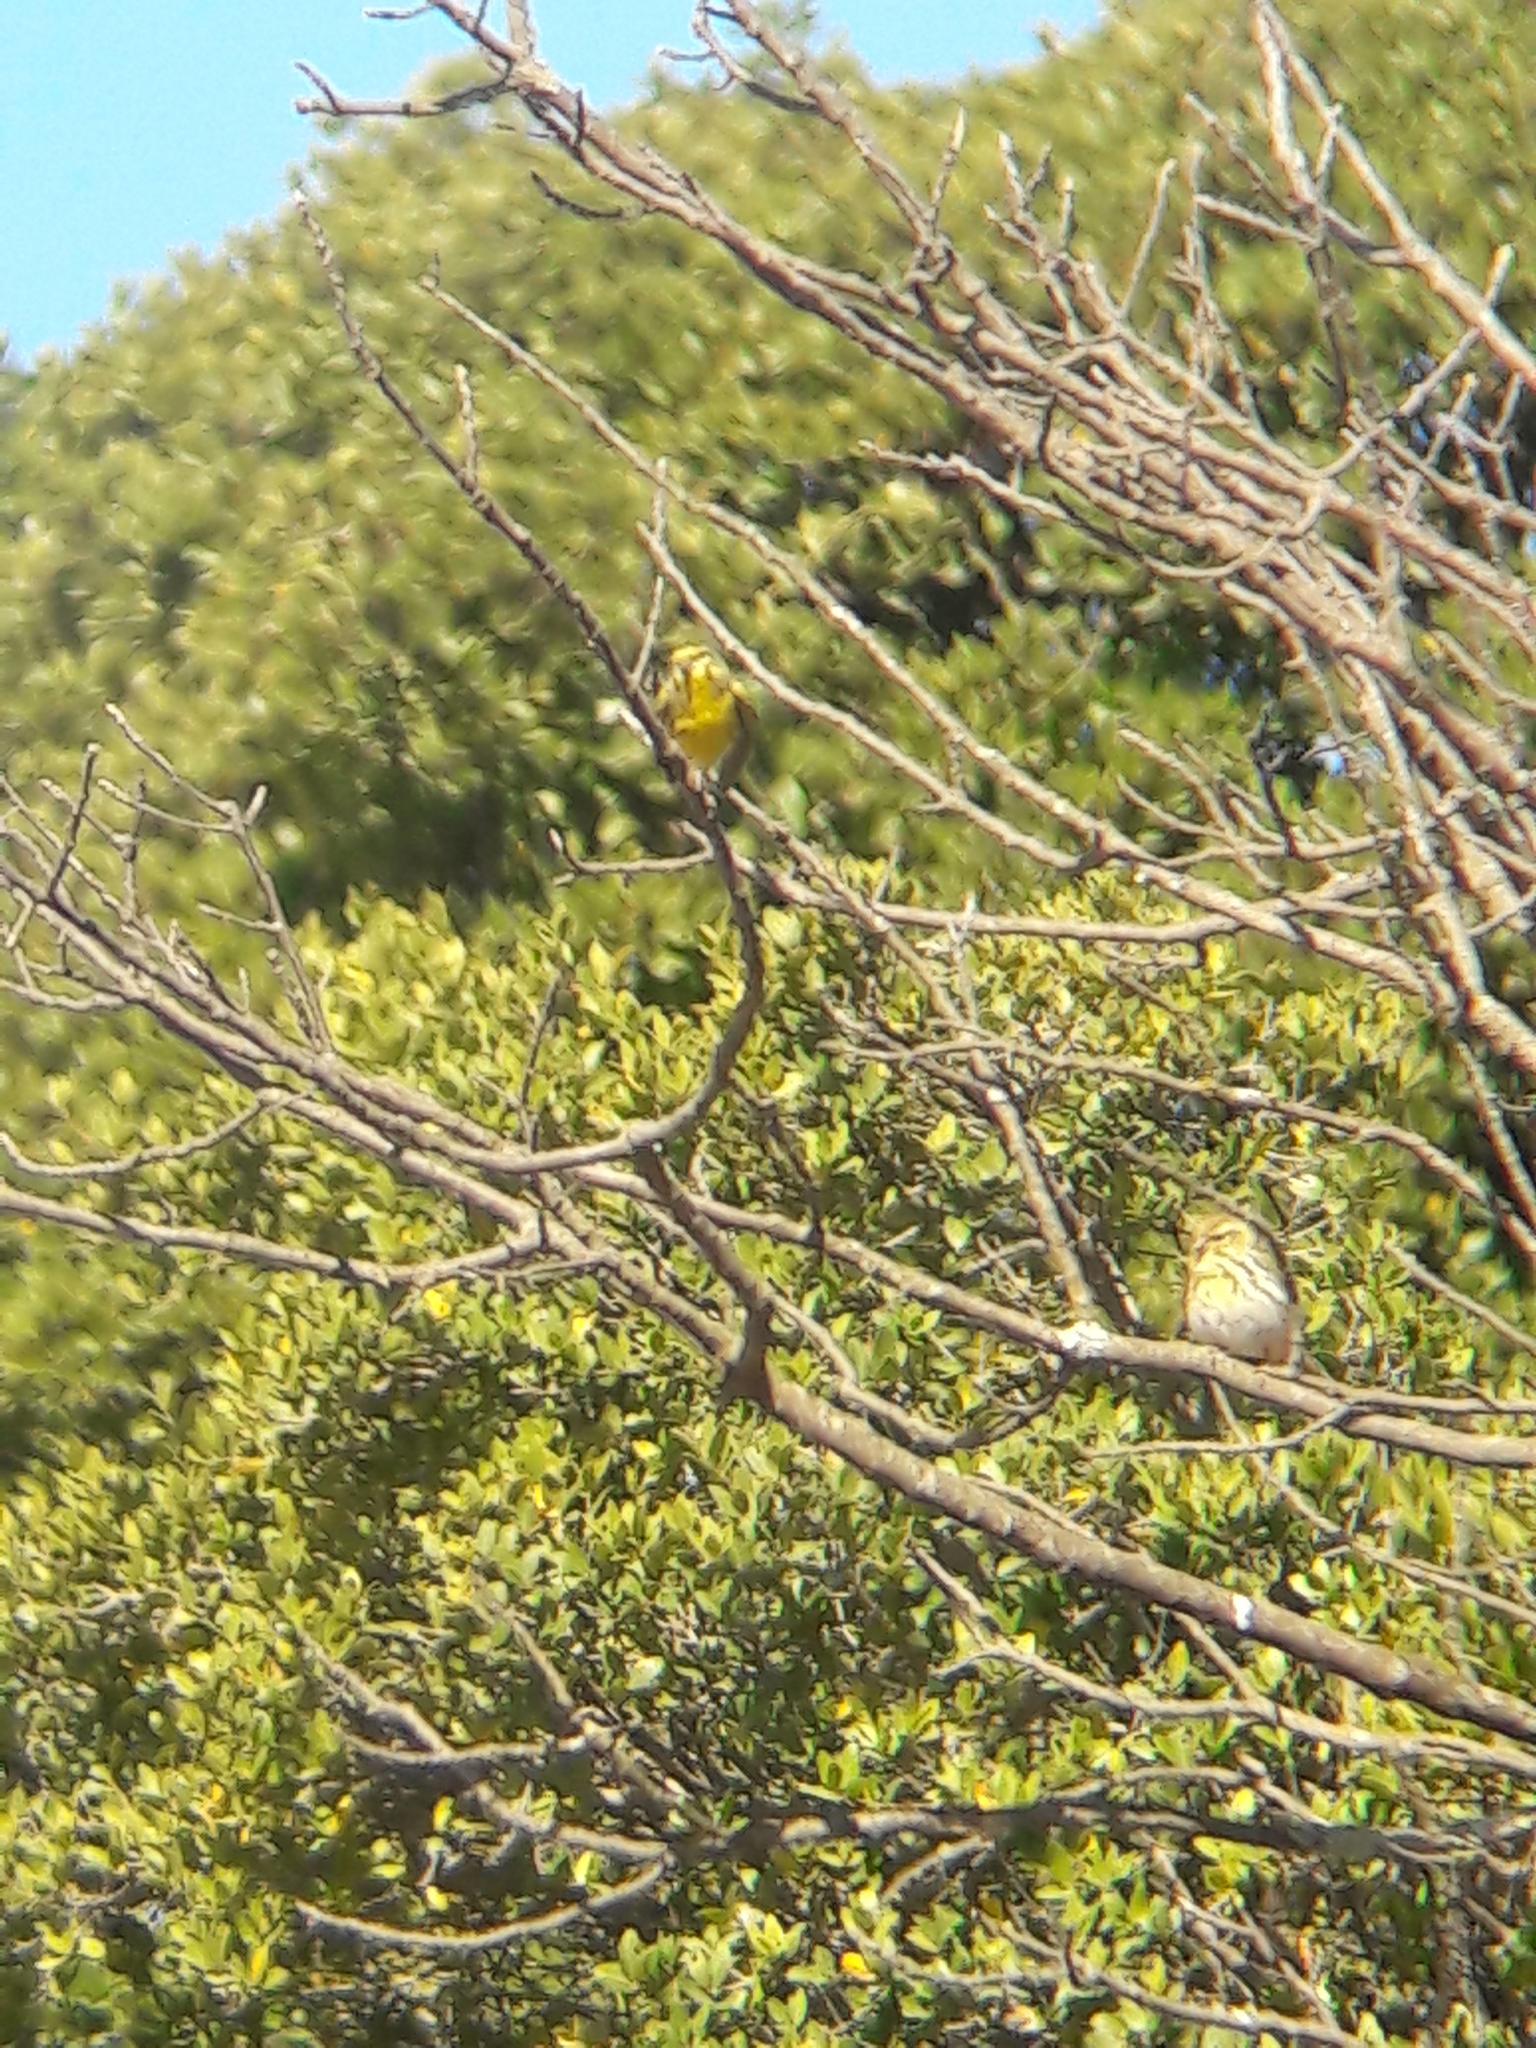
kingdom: Animalia
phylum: Chordata
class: Aves
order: Passeriformes
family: Fringillidae
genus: Serinus
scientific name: Serinus serinus
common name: European serin
